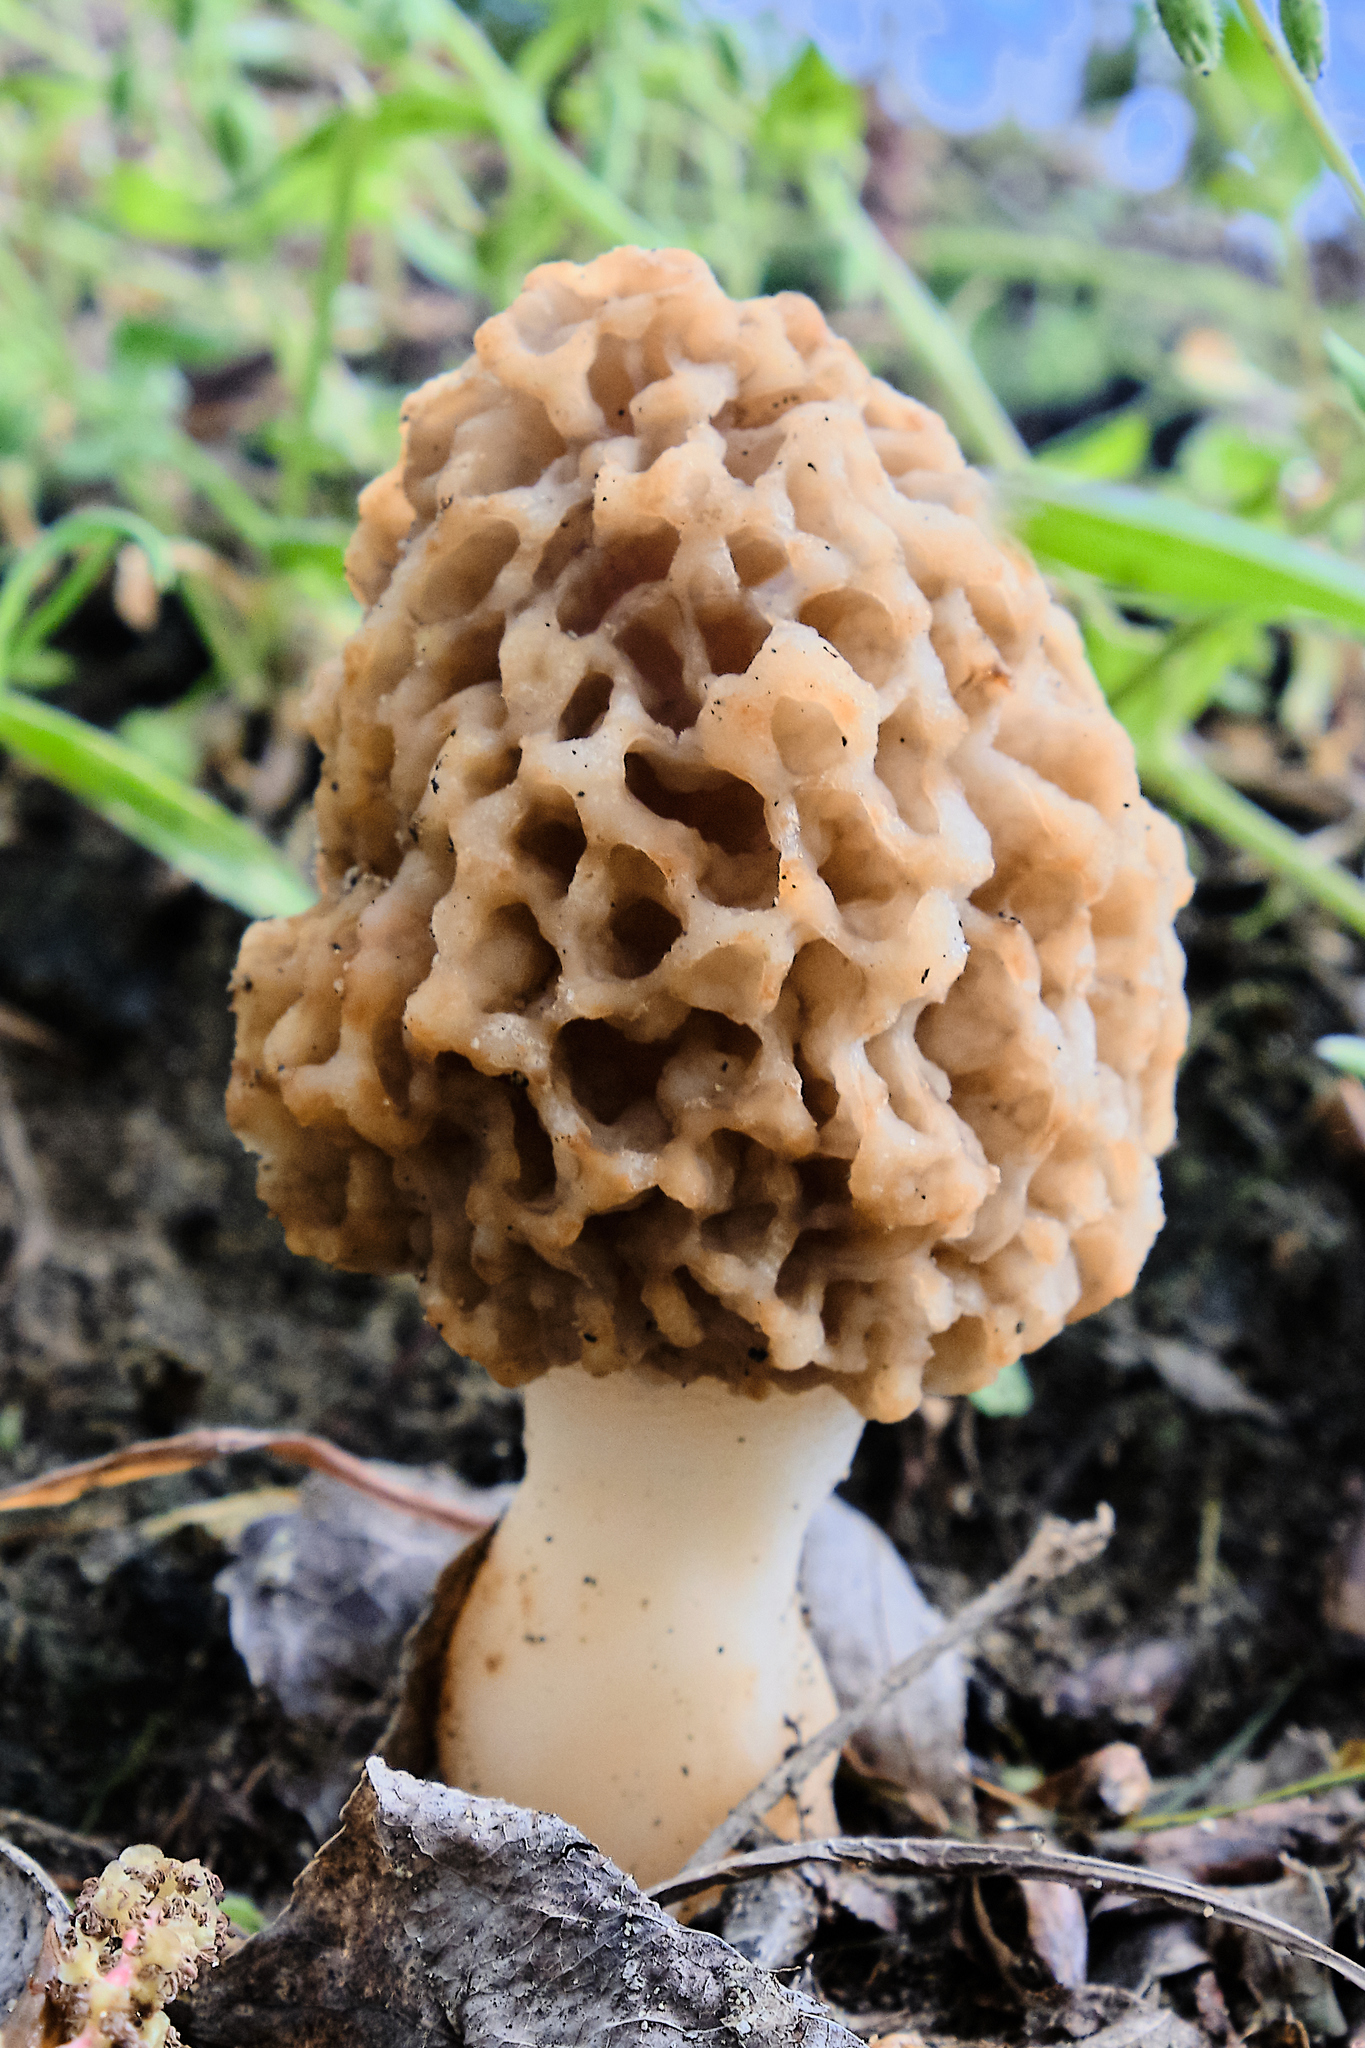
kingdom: Fungi
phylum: Ascomycota
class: Pezizomycetes
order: Pezizales
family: Morchellaceae
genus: Morchella
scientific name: Morchella
